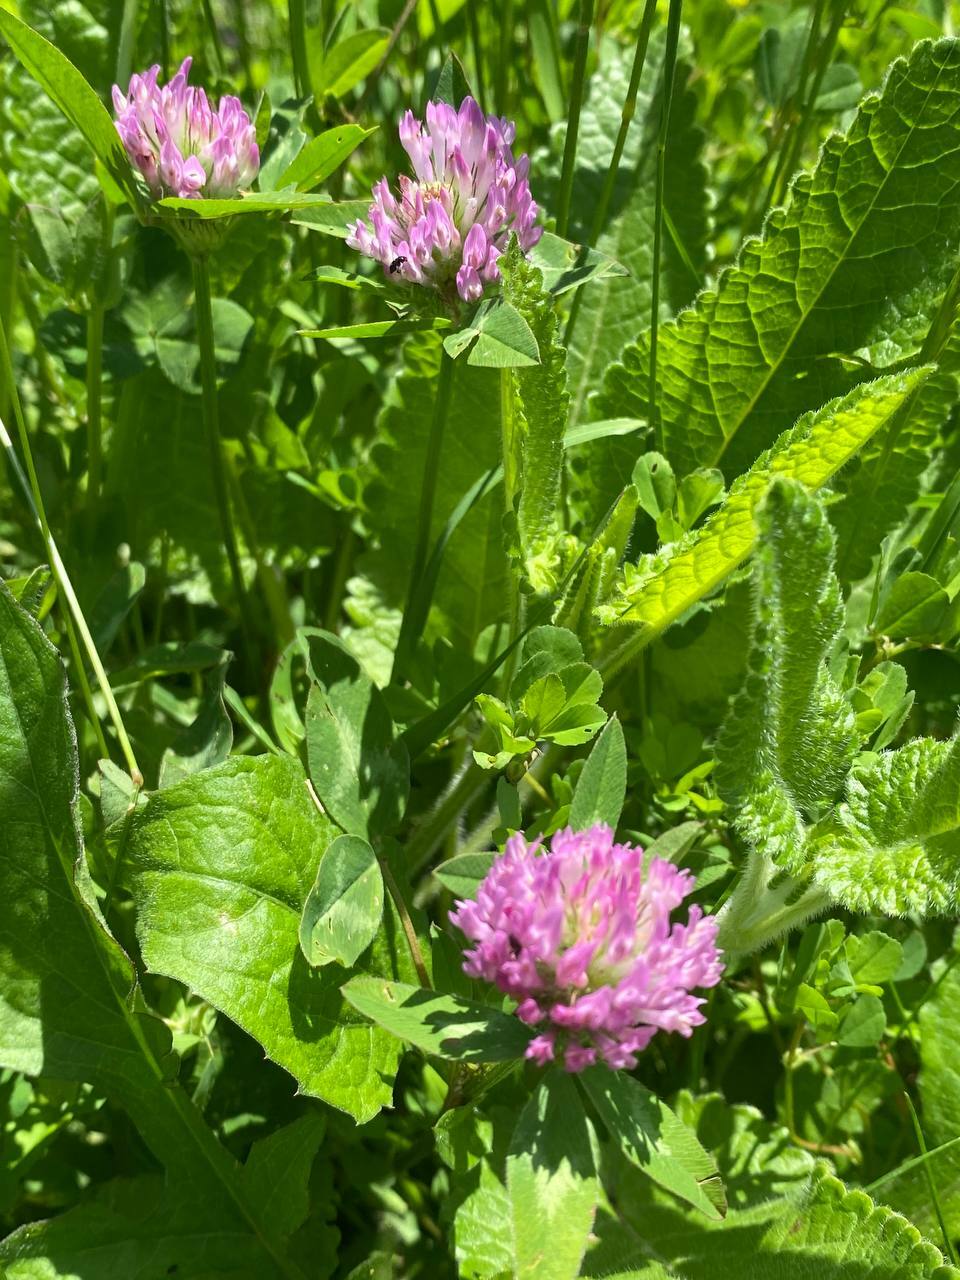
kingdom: Plantae
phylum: Tracheophyta
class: Magnoliopsida
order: Fabales
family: Fabaceae
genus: Trifolium
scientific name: Trifolium pratense
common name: Red clover
